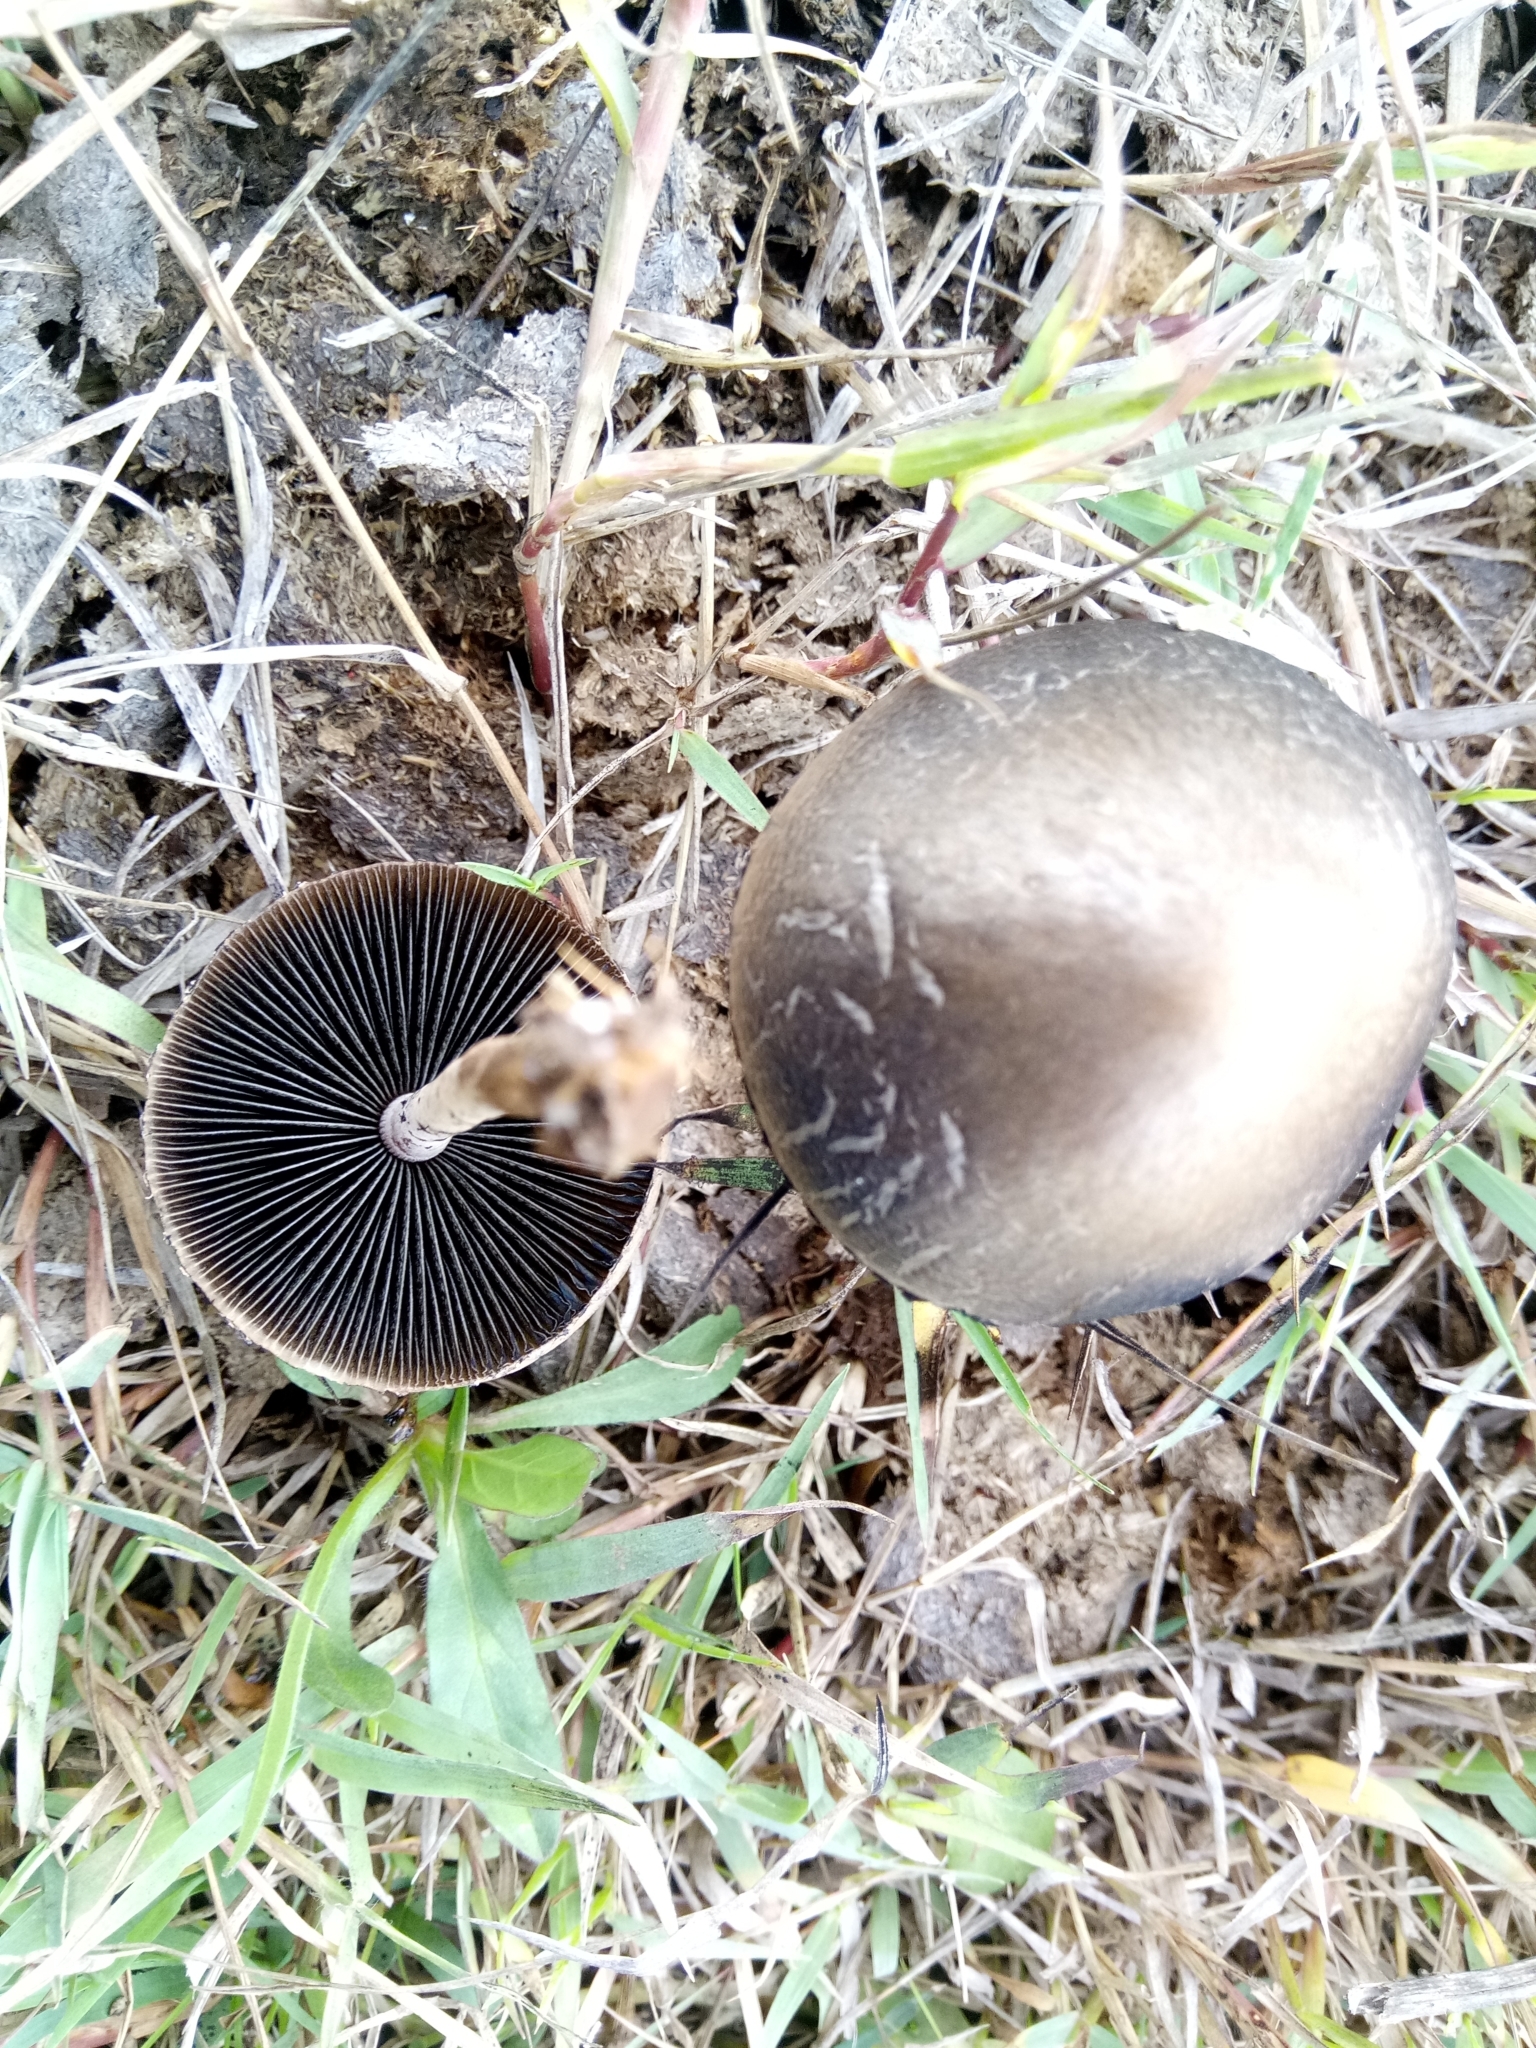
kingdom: Fungi
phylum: Basidiomycota
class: Agaricomycetes
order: Agaricales
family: Bolbitiaceae
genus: Panaeolus
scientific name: Panaeolus papilionaceus
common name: Petticoat mottlegill
